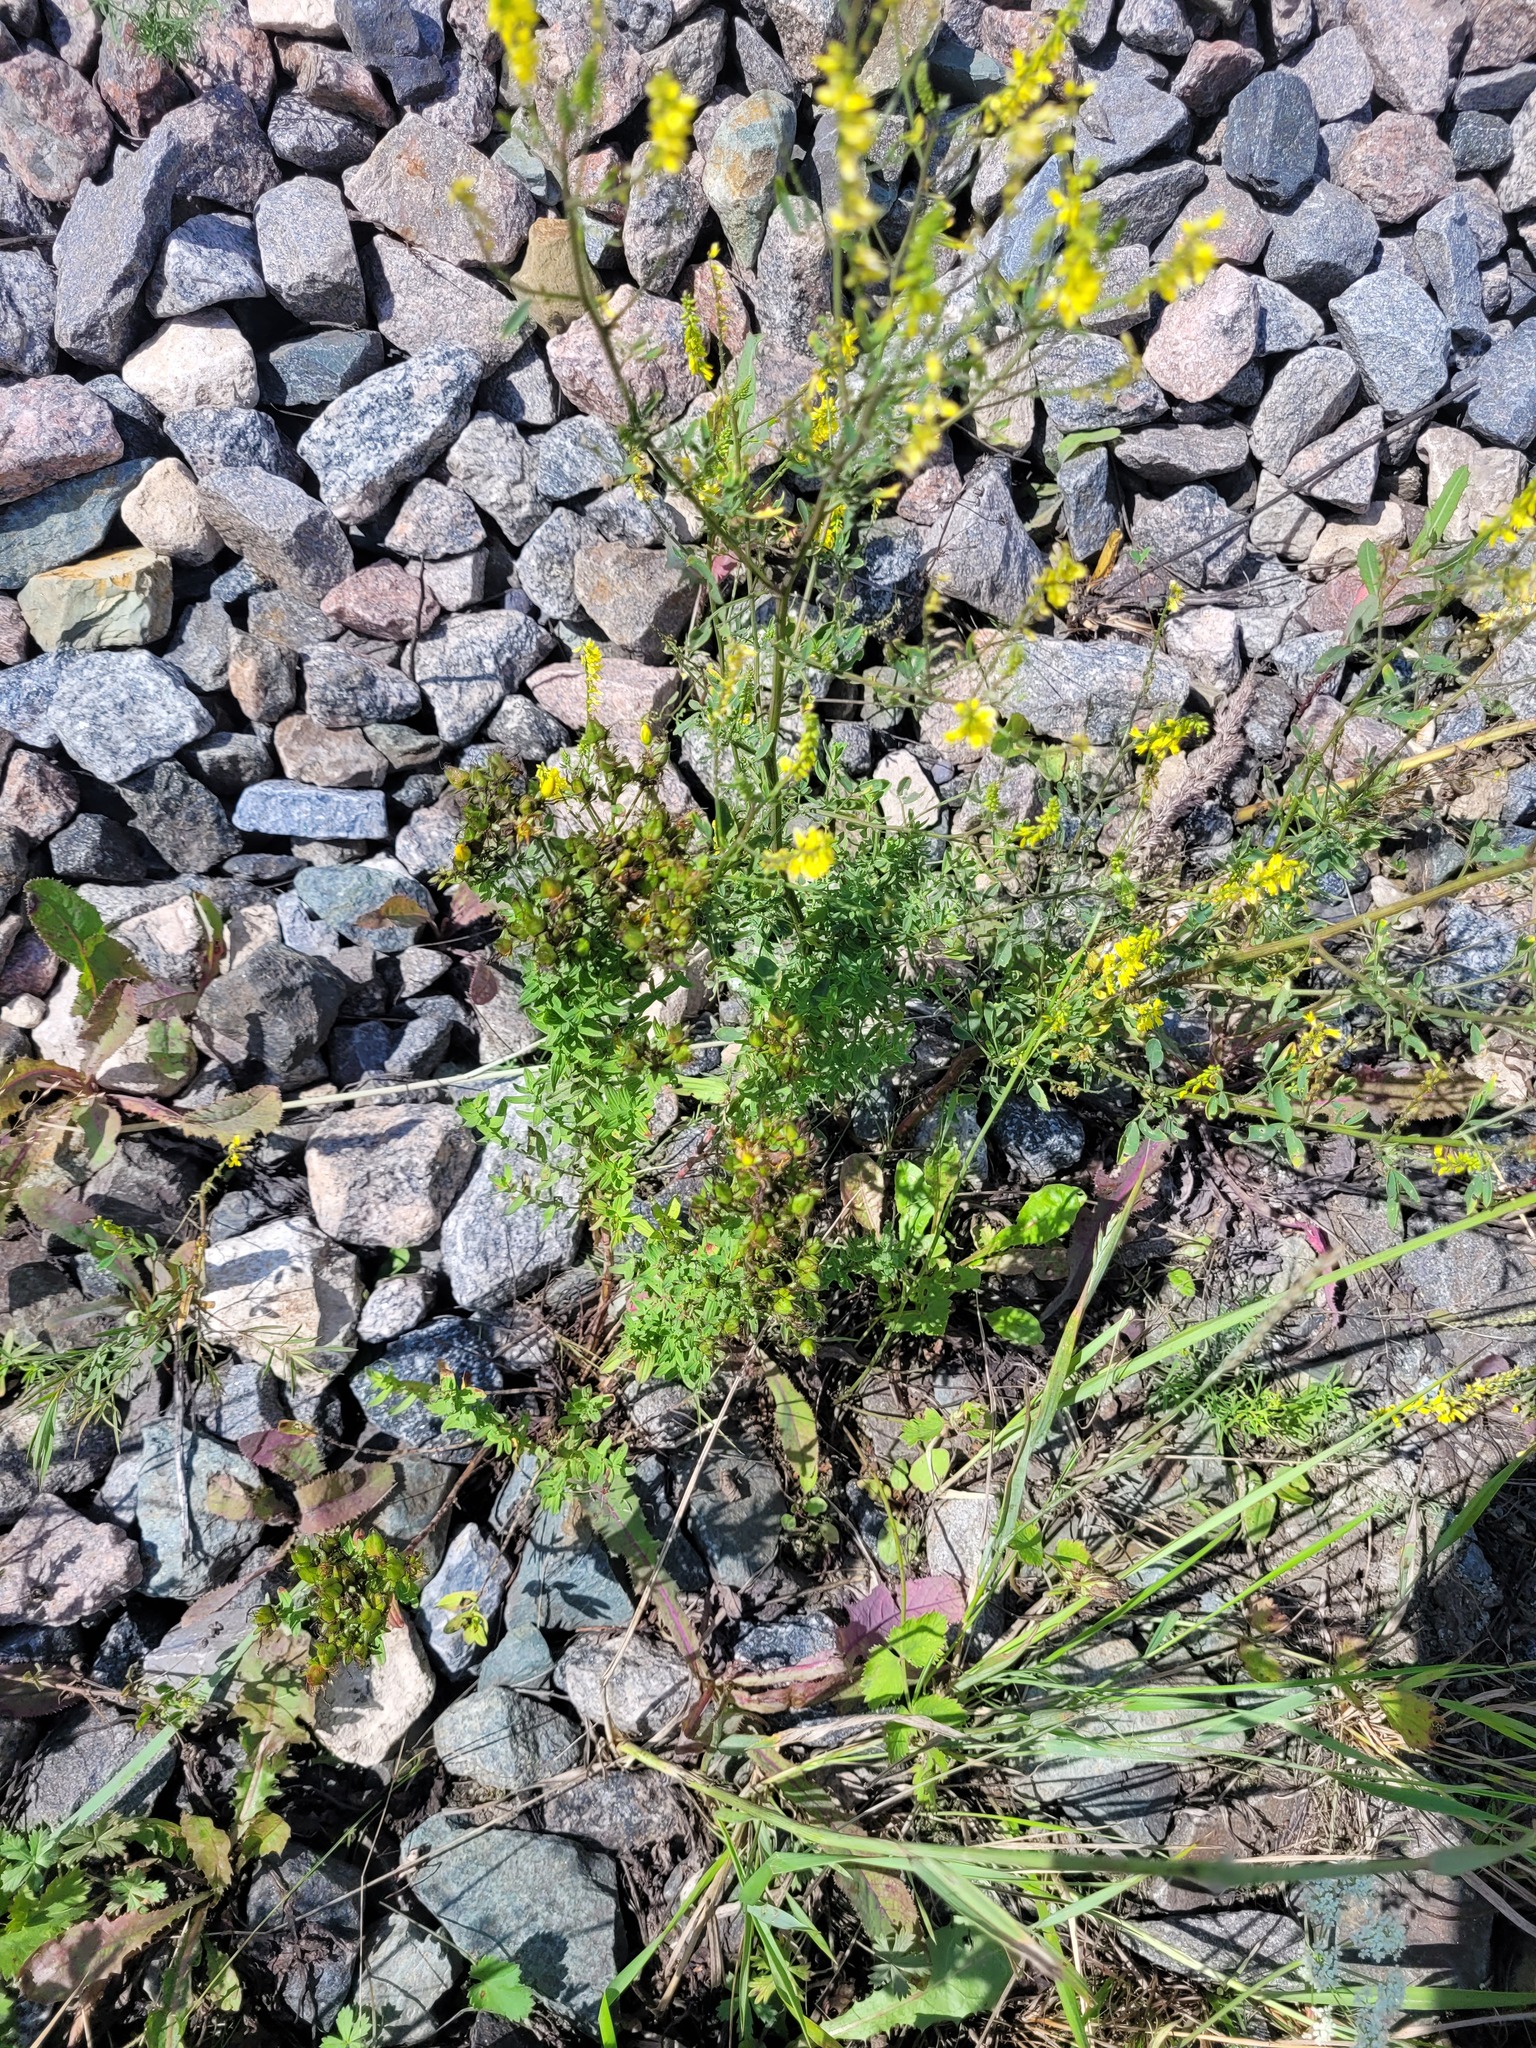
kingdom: Plantae
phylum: Tracheophyta
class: Magnoliopsida
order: Malpighiales
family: Hypericaceae
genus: Hypericum
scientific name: Hypericum perforatum
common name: Common st. johnswort
